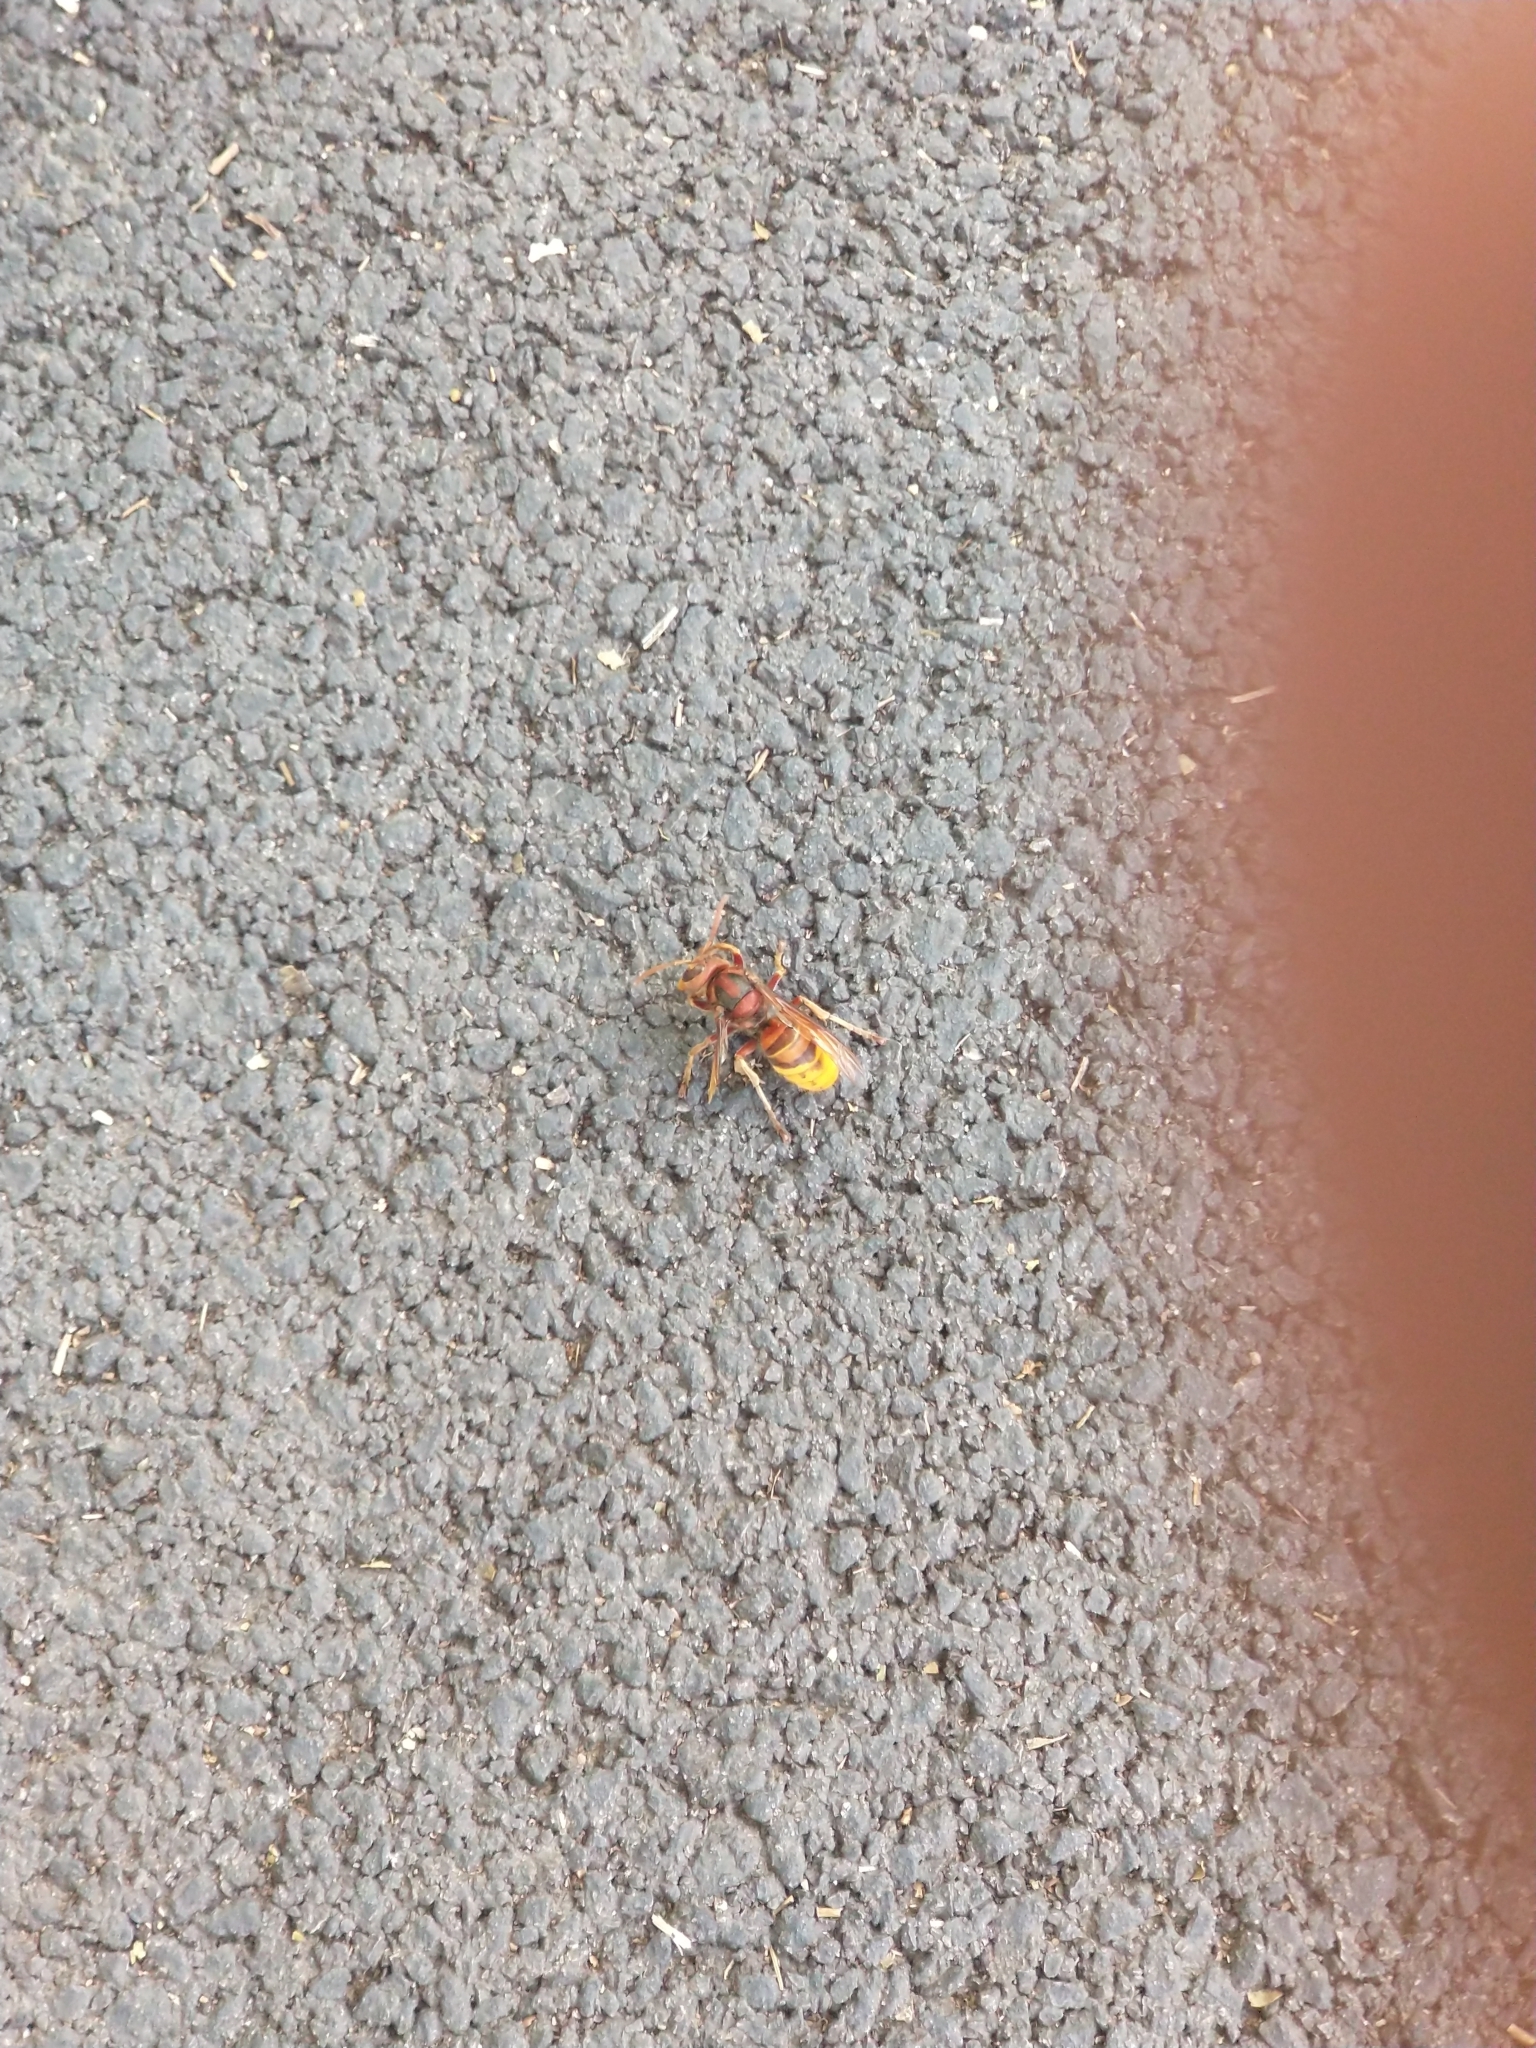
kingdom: Animalia
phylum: Arthropoda
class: Insecta
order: Hymenoptera
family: Vespidae
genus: Vespa
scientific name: Vespa crabro
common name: Hornet
